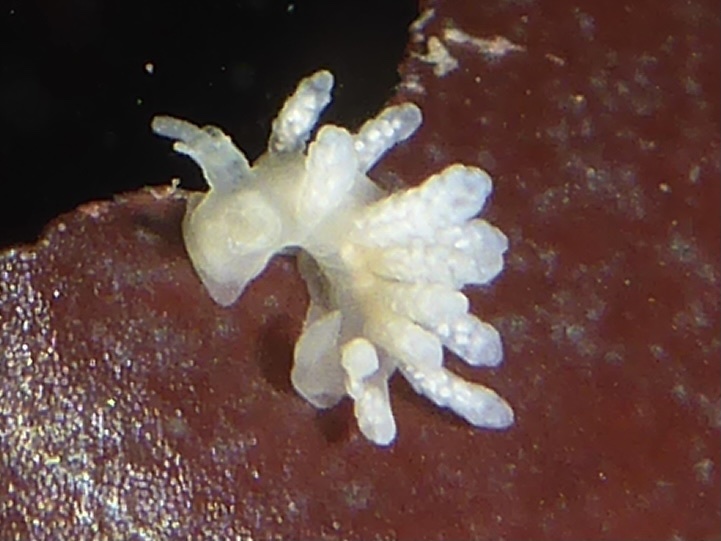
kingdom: Animalia
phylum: Mollusca
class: Gastropoda
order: Nudibranchia
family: Dotidae
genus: Doto
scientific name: Doto amyra
